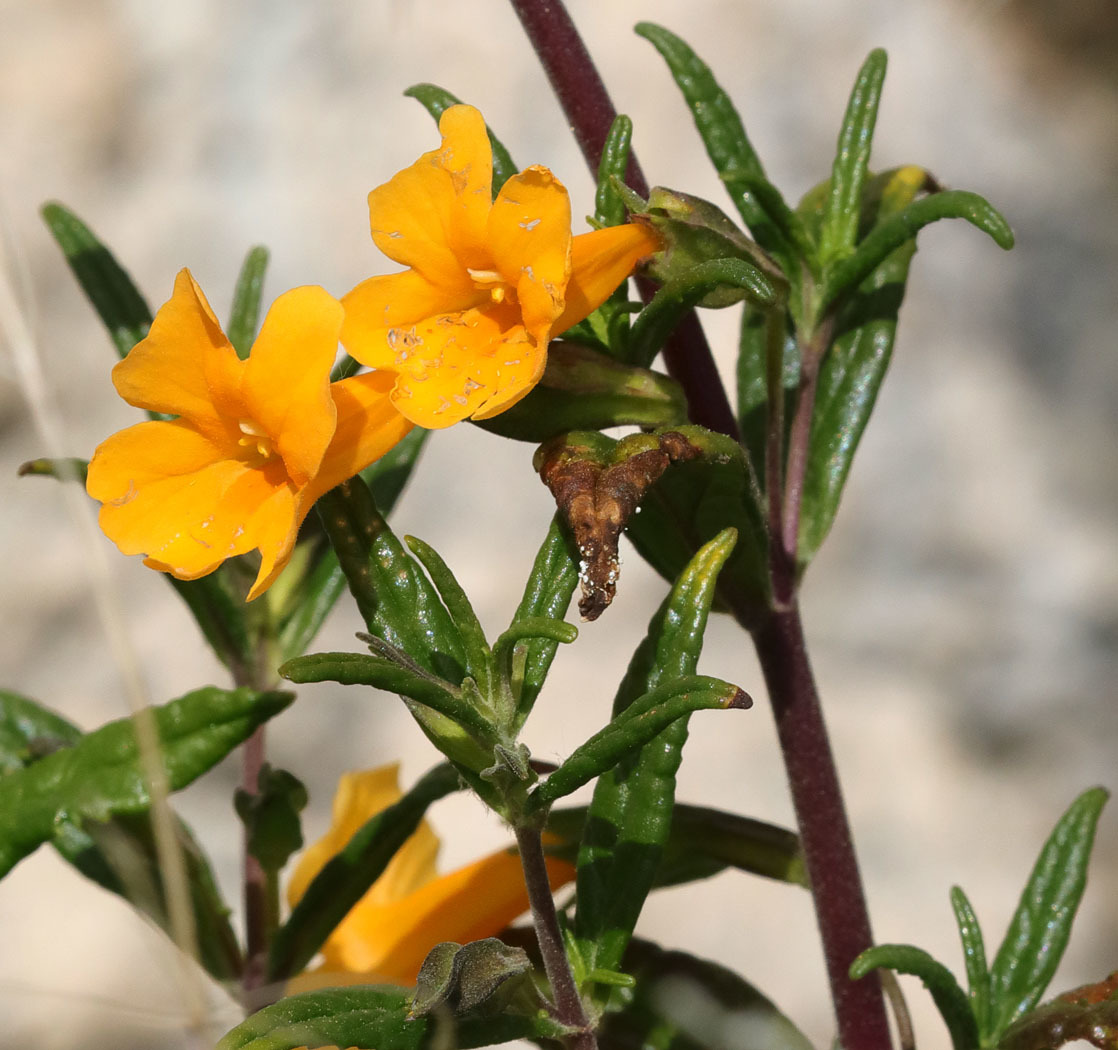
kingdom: Plantae
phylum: Tracheophyta
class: Magnoliopsida
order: Lamiales
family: Phrymaceae
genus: Diplacus
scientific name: Diplacus aurantiacus
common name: Bush monkey-flower
